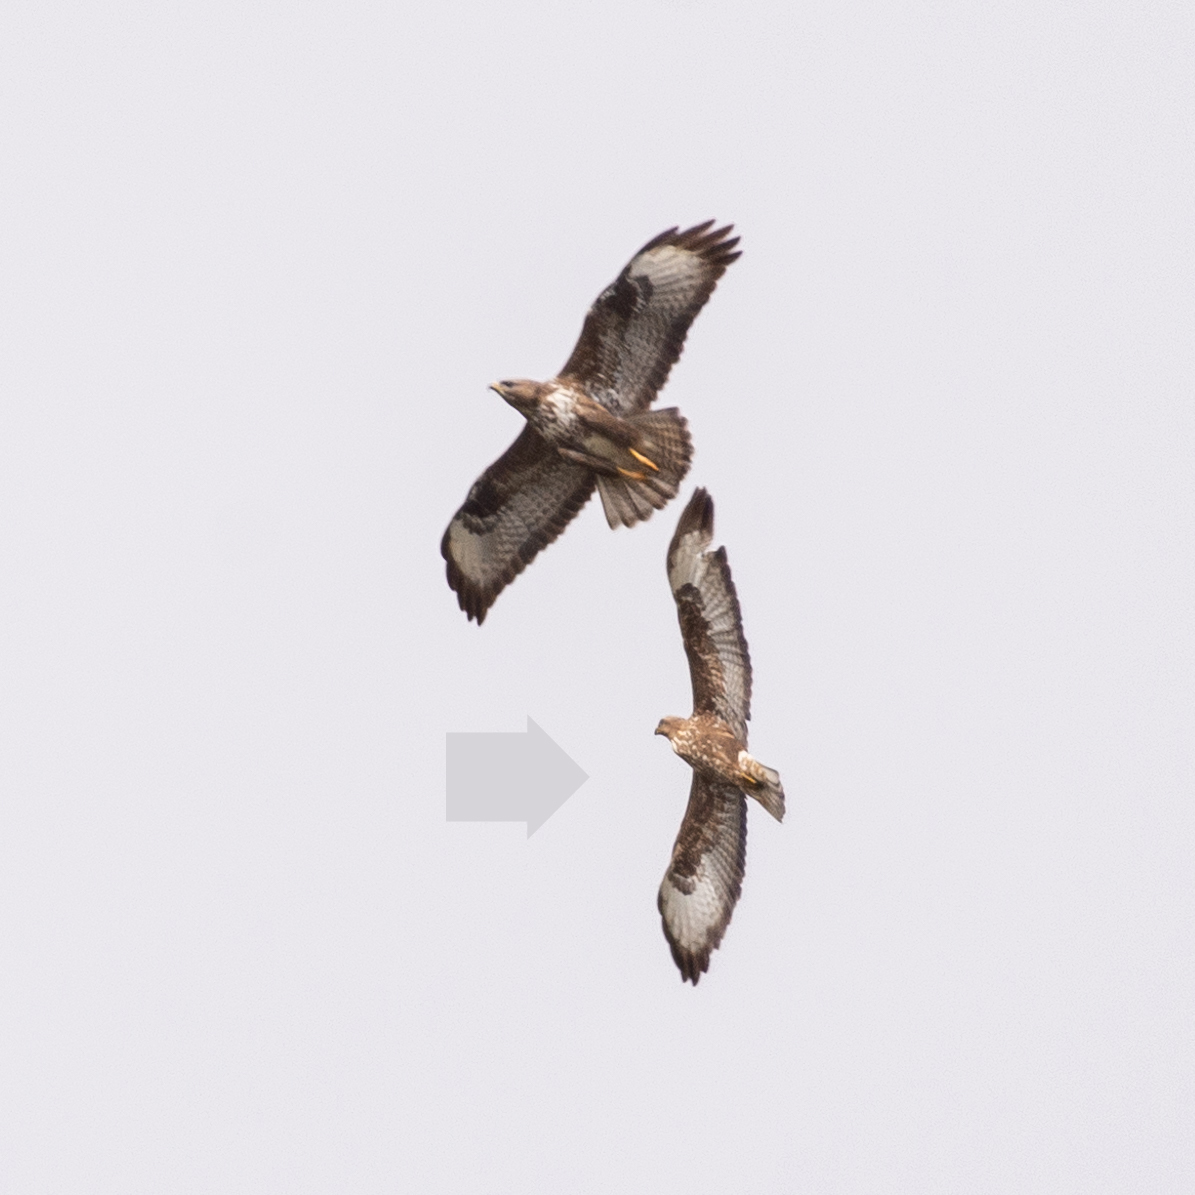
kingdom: Animalia
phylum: Chordata
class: Aves
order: Accipitriformes
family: Accipitridae
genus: Buteo
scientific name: Buteo buteo
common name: Common buzzard
